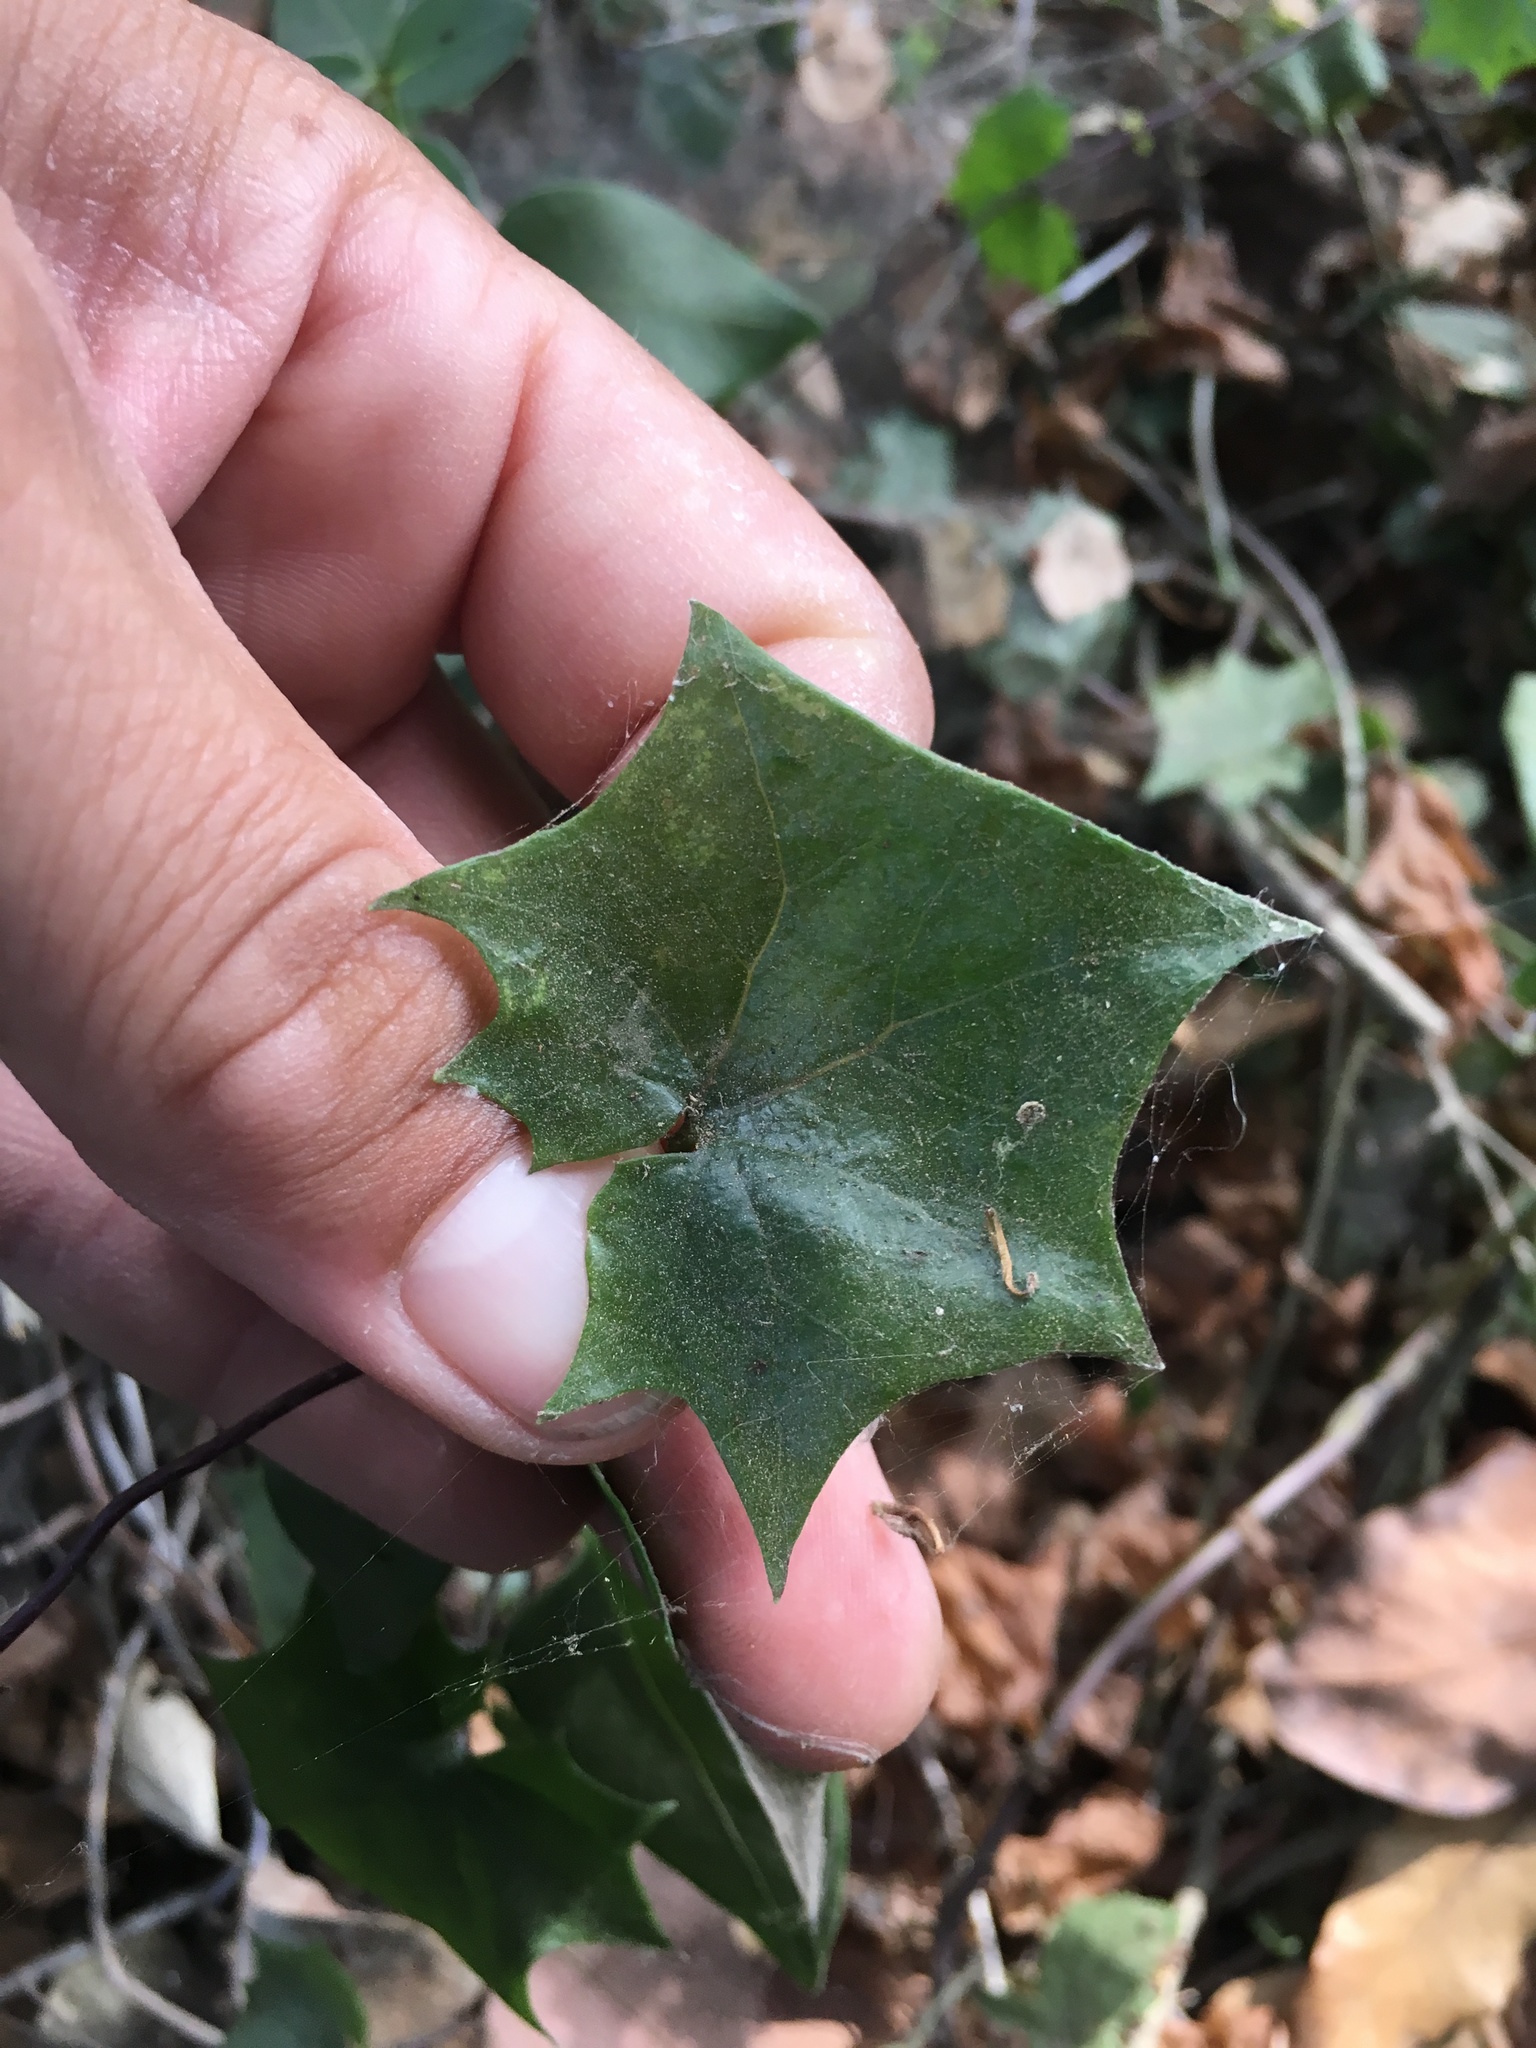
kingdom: Plantae
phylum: Tracheophyta
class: Magnoliopsida
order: Asterales
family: Asteraceae
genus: Delairea
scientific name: Delairea odorata
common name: Cape-ivy
